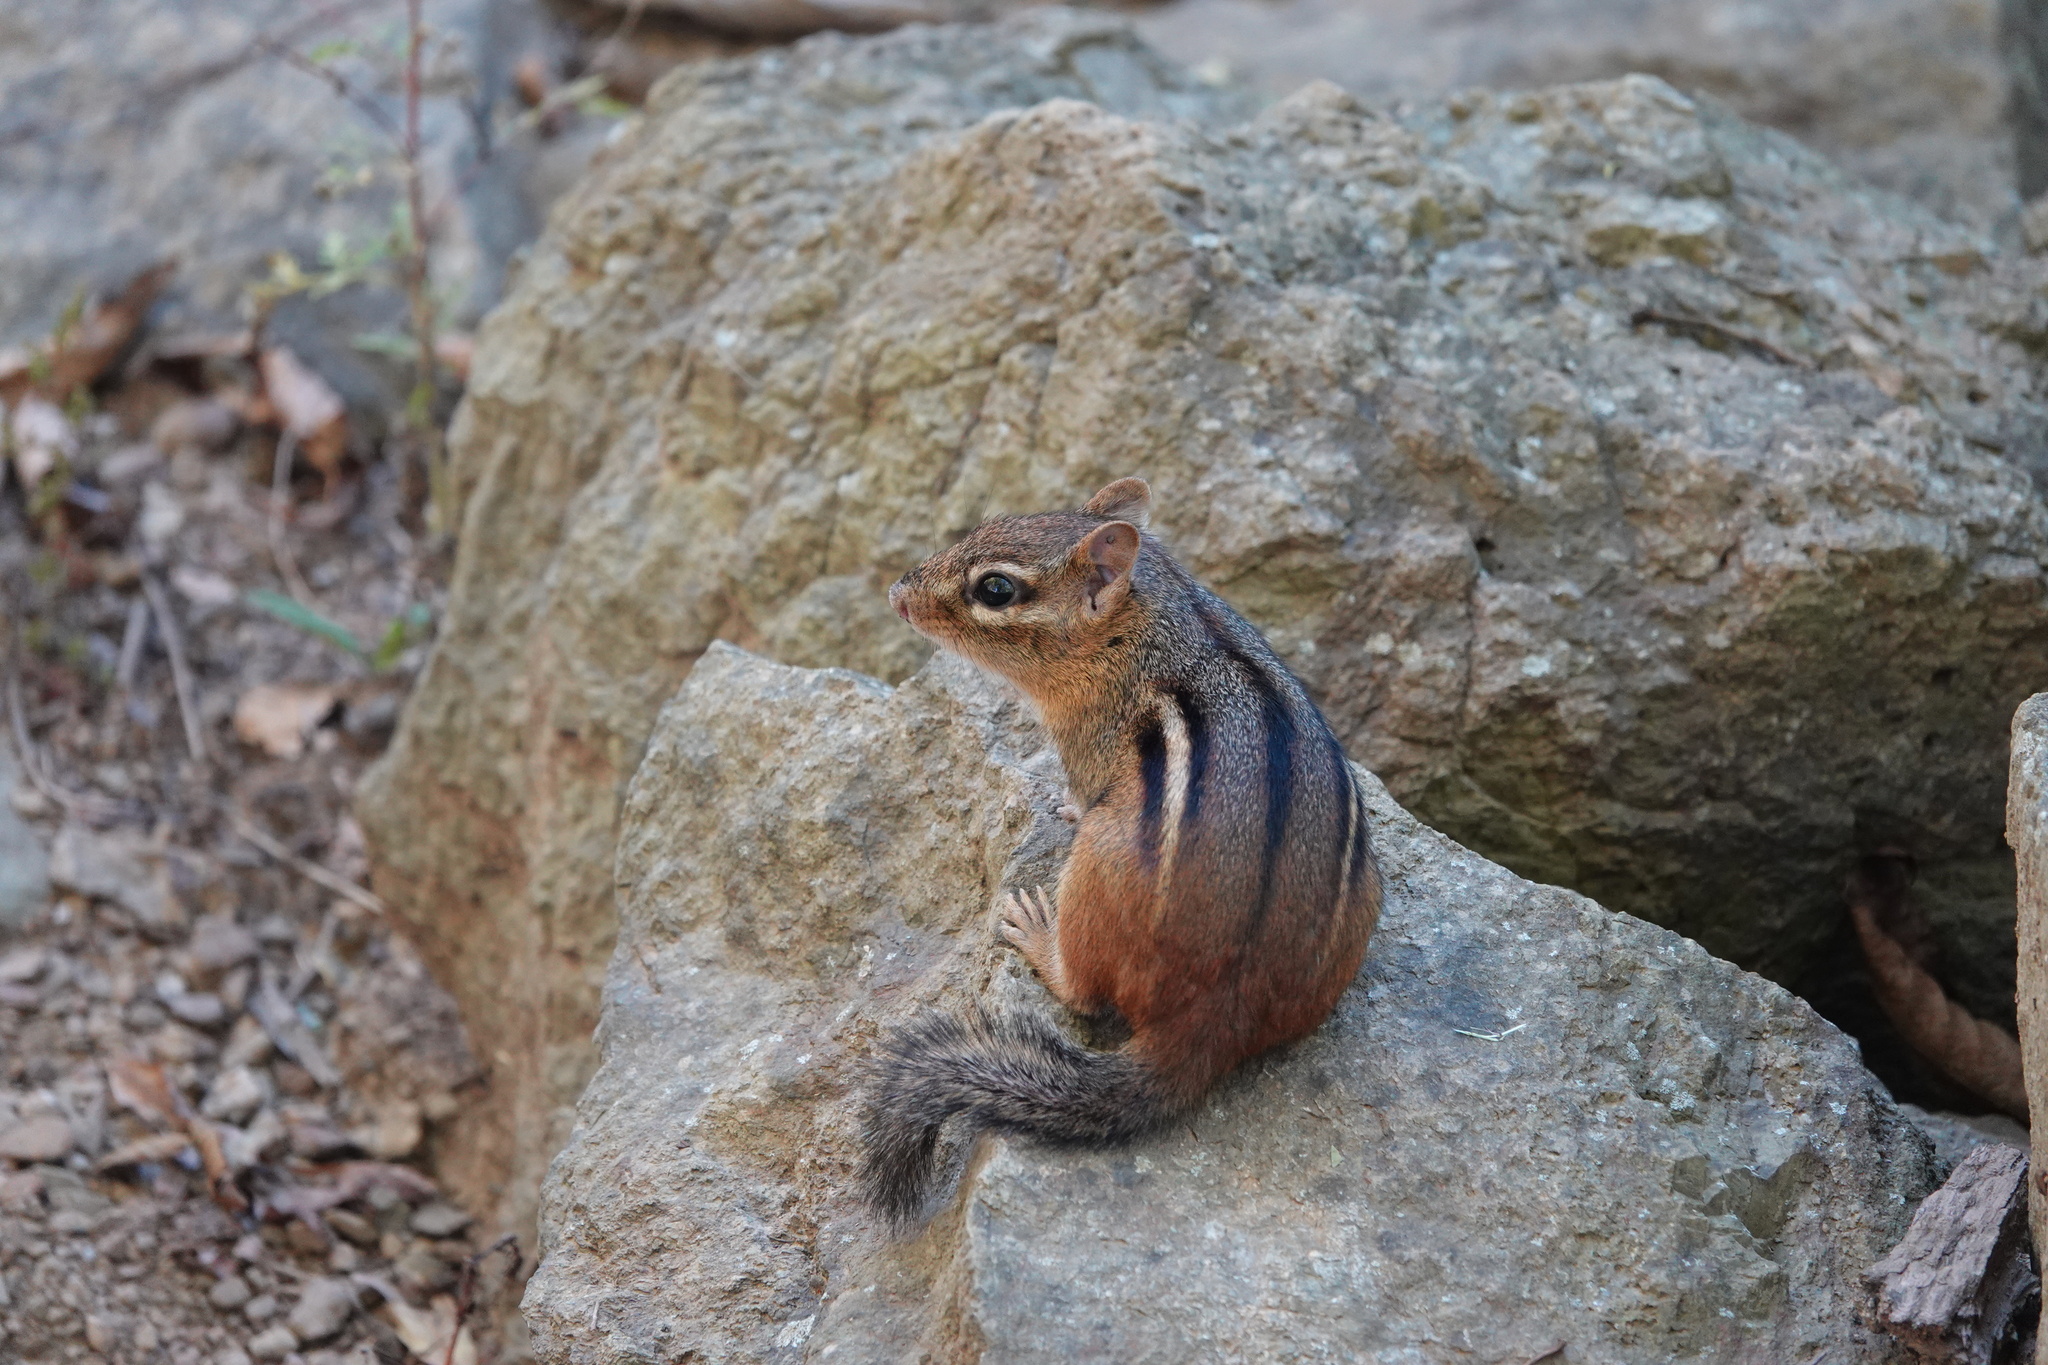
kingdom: Animalia
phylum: Chordata
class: Mammalia
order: Rodentia
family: Sciuridae
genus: Tamias
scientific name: Tamias striatus
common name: Eastern chipmunk
